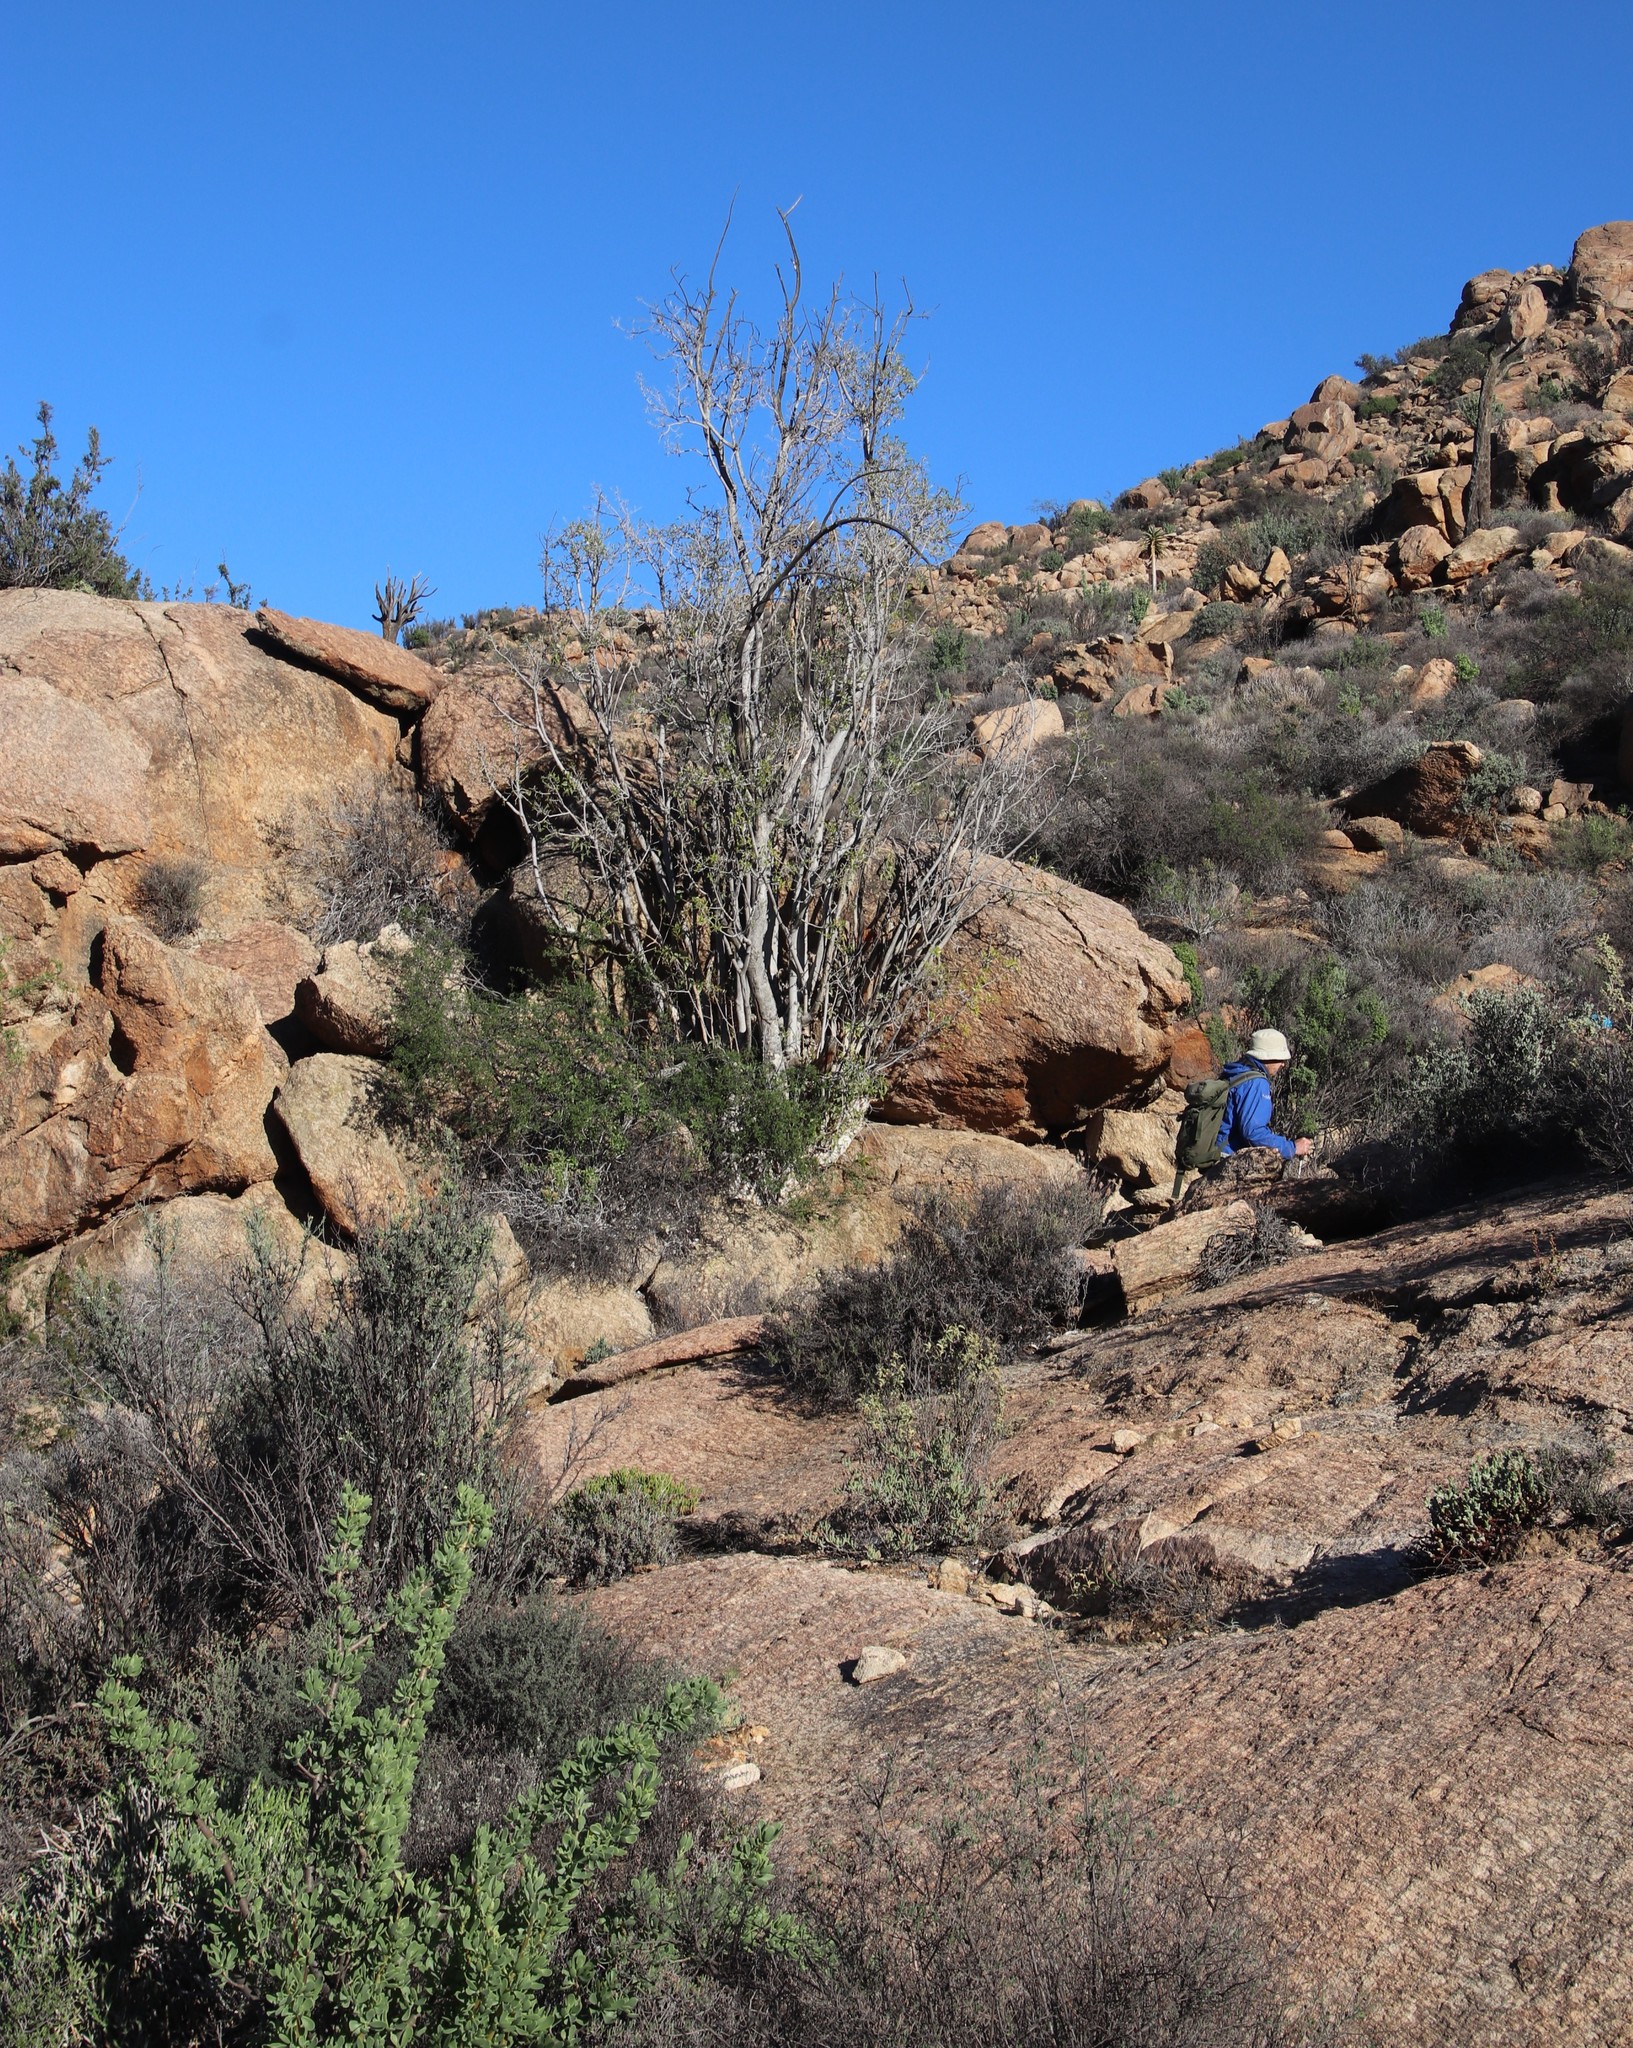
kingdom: Plantae
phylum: Tracheophyta
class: Magnoliopsida
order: Rosales
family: Moraceae
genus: Ficus
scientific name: Ficus cordata
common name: Namaqua rock fig
